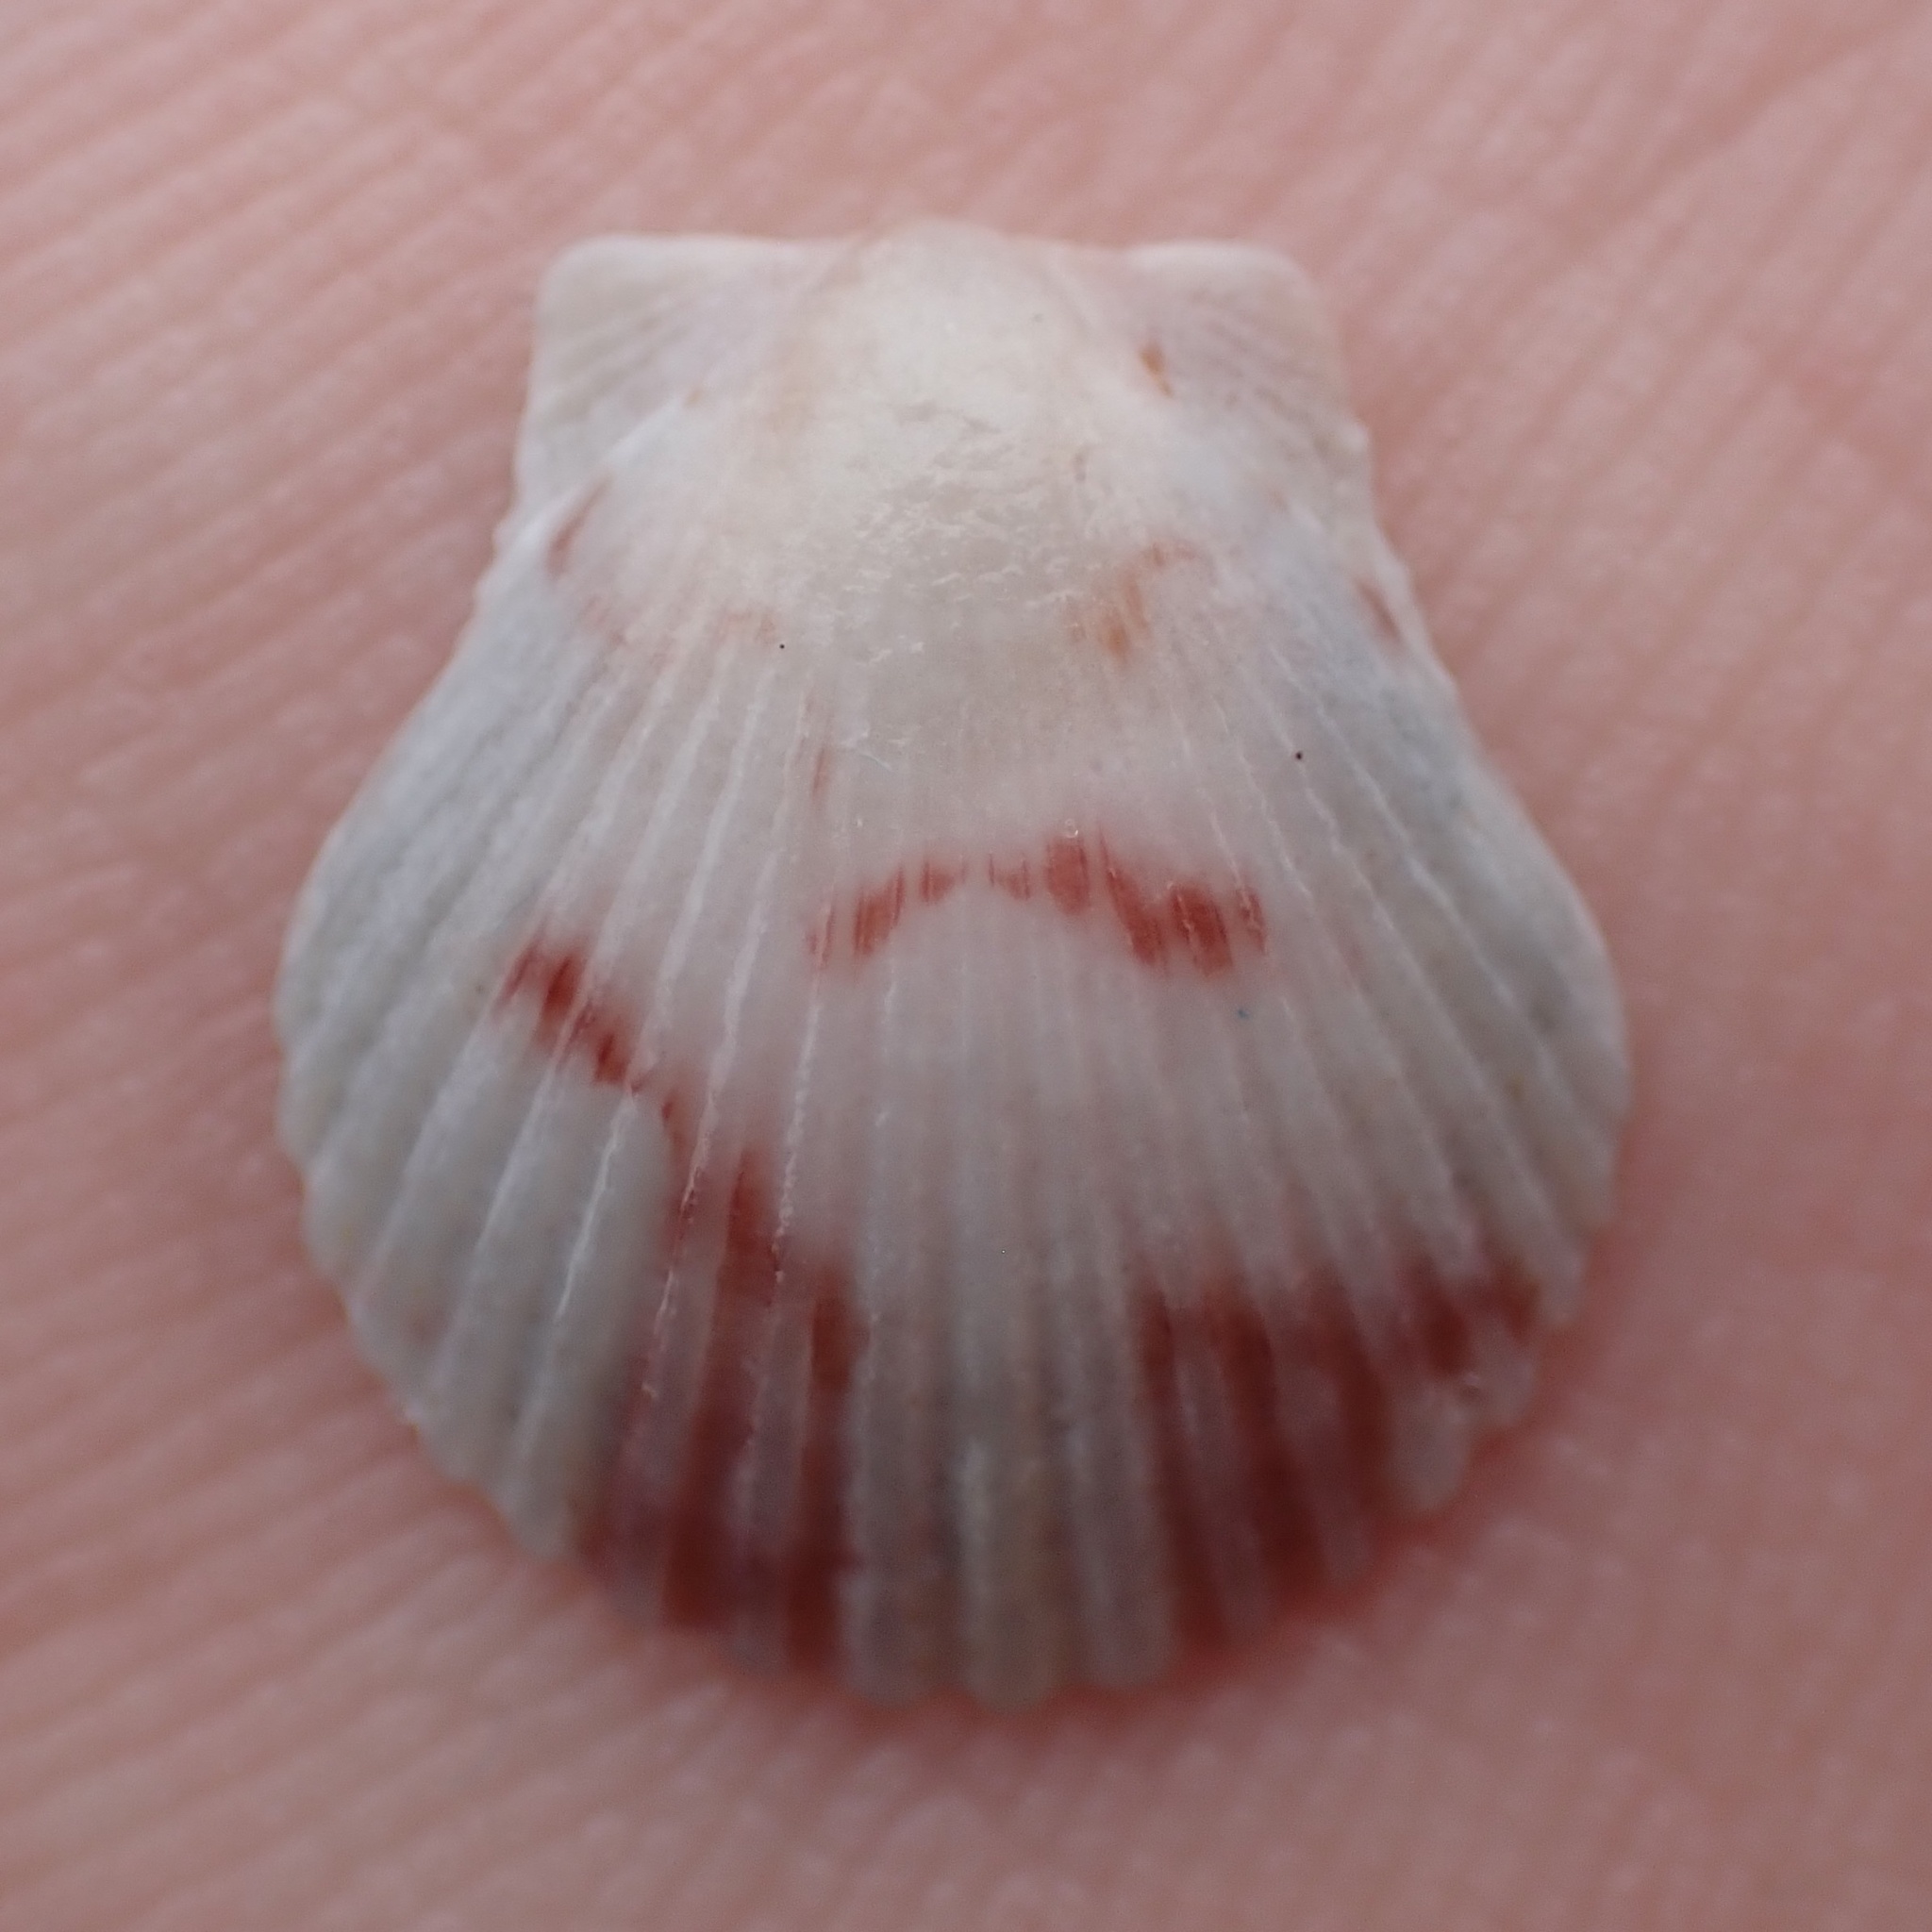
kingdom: Animalia
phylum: Mollusca
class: Bivalvia
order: Pectinida
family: Pectinidae
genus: Argopecten
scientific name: Argopecten gibbus
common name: Atlantic calico scallop
